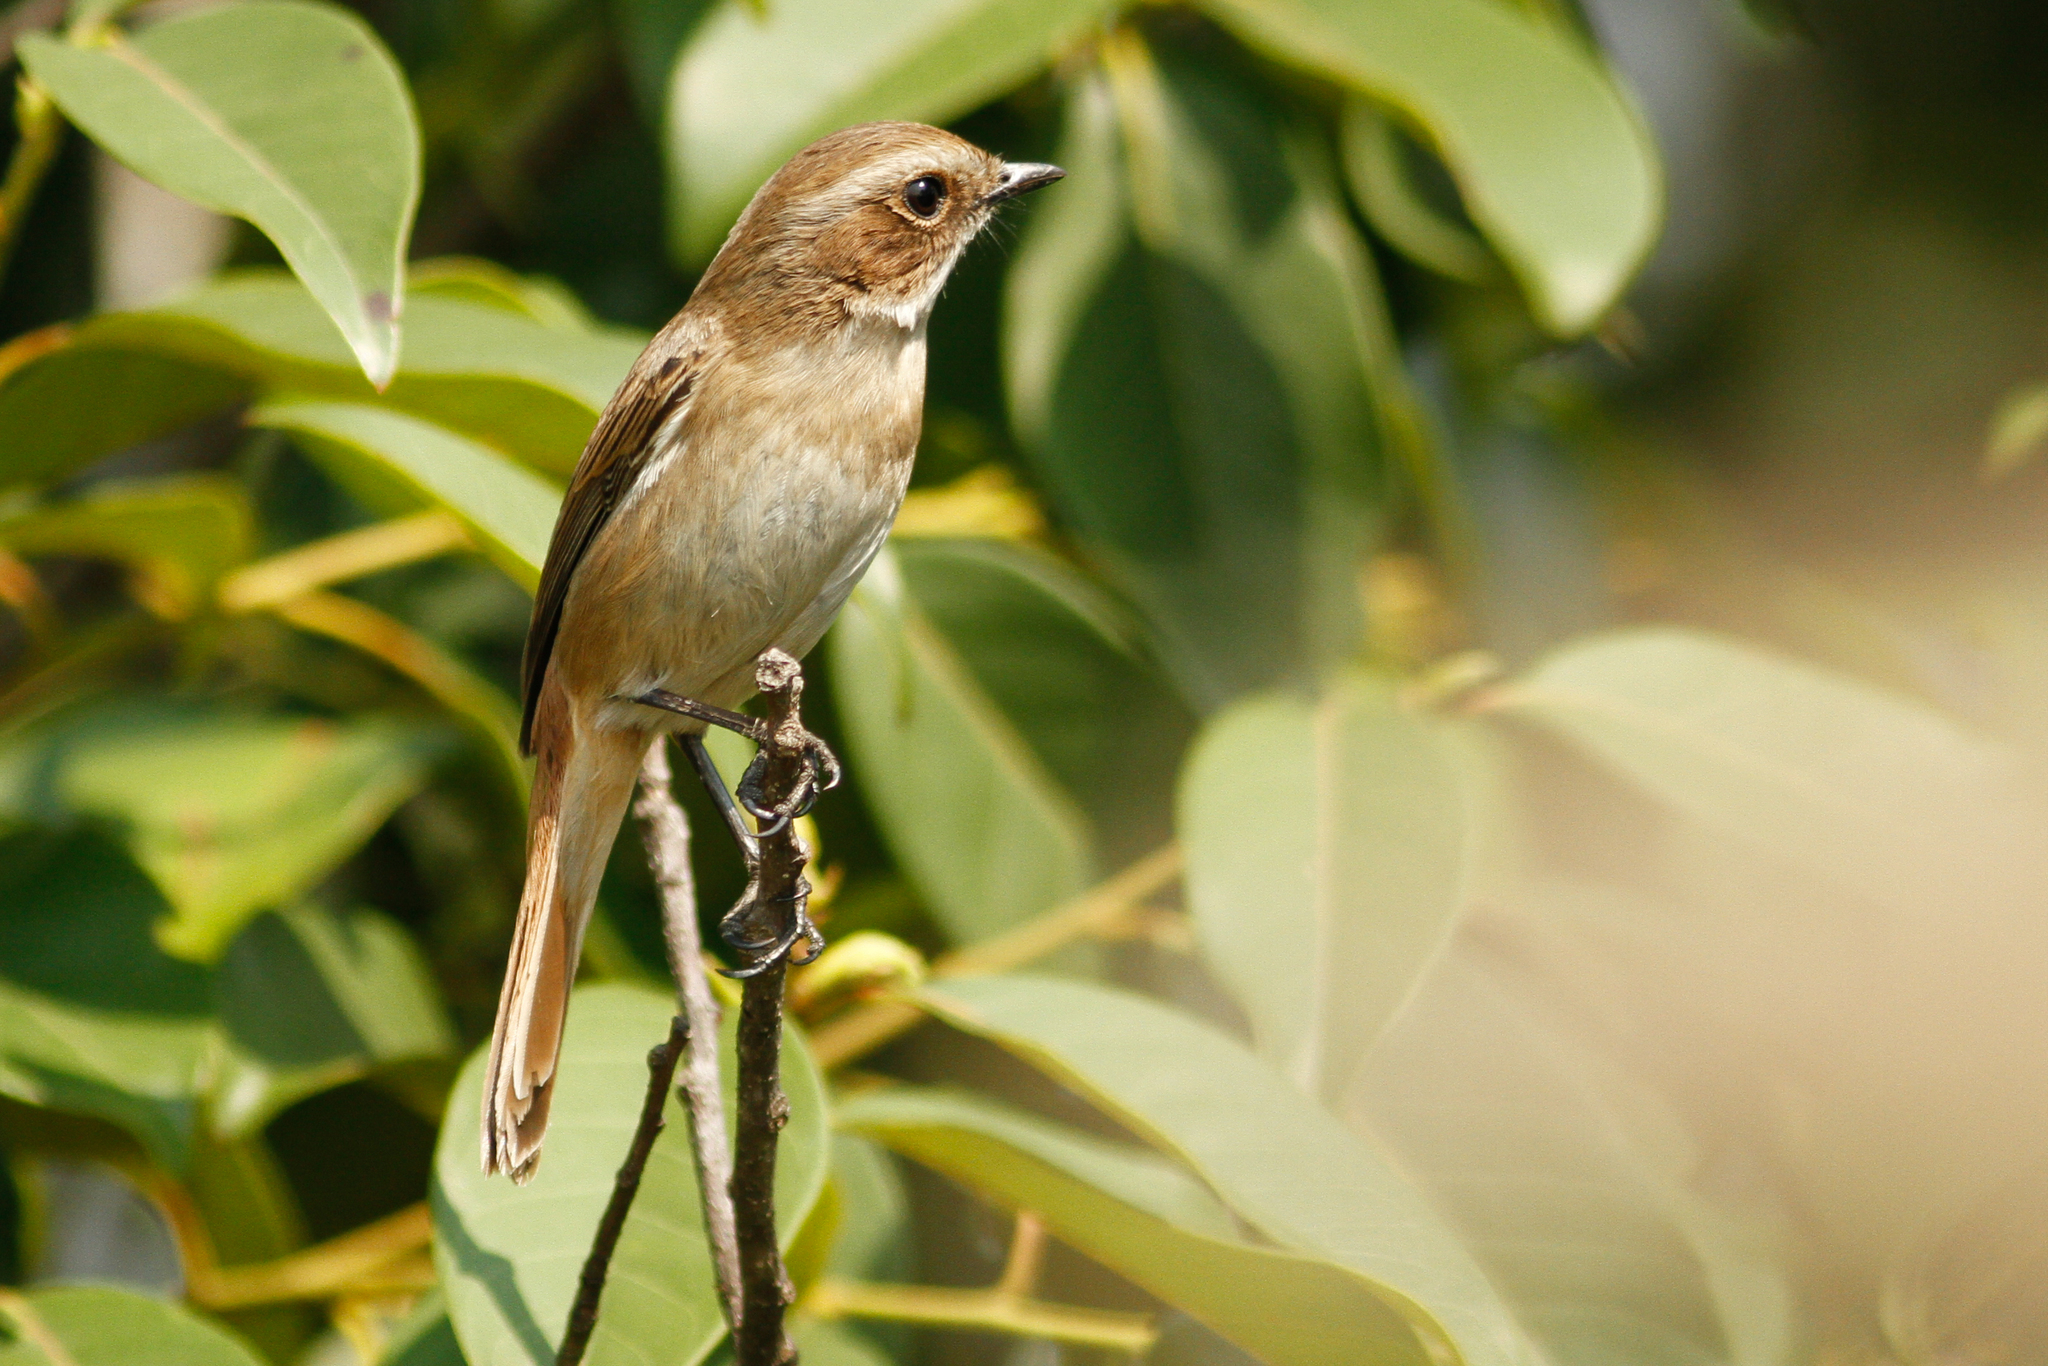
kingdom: Animalia
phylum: Chordata
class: Aves
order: Passeriformes
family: Muscicapidae
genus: Saxicola
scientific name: Saxicola ferreus
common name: Grey bush chat
